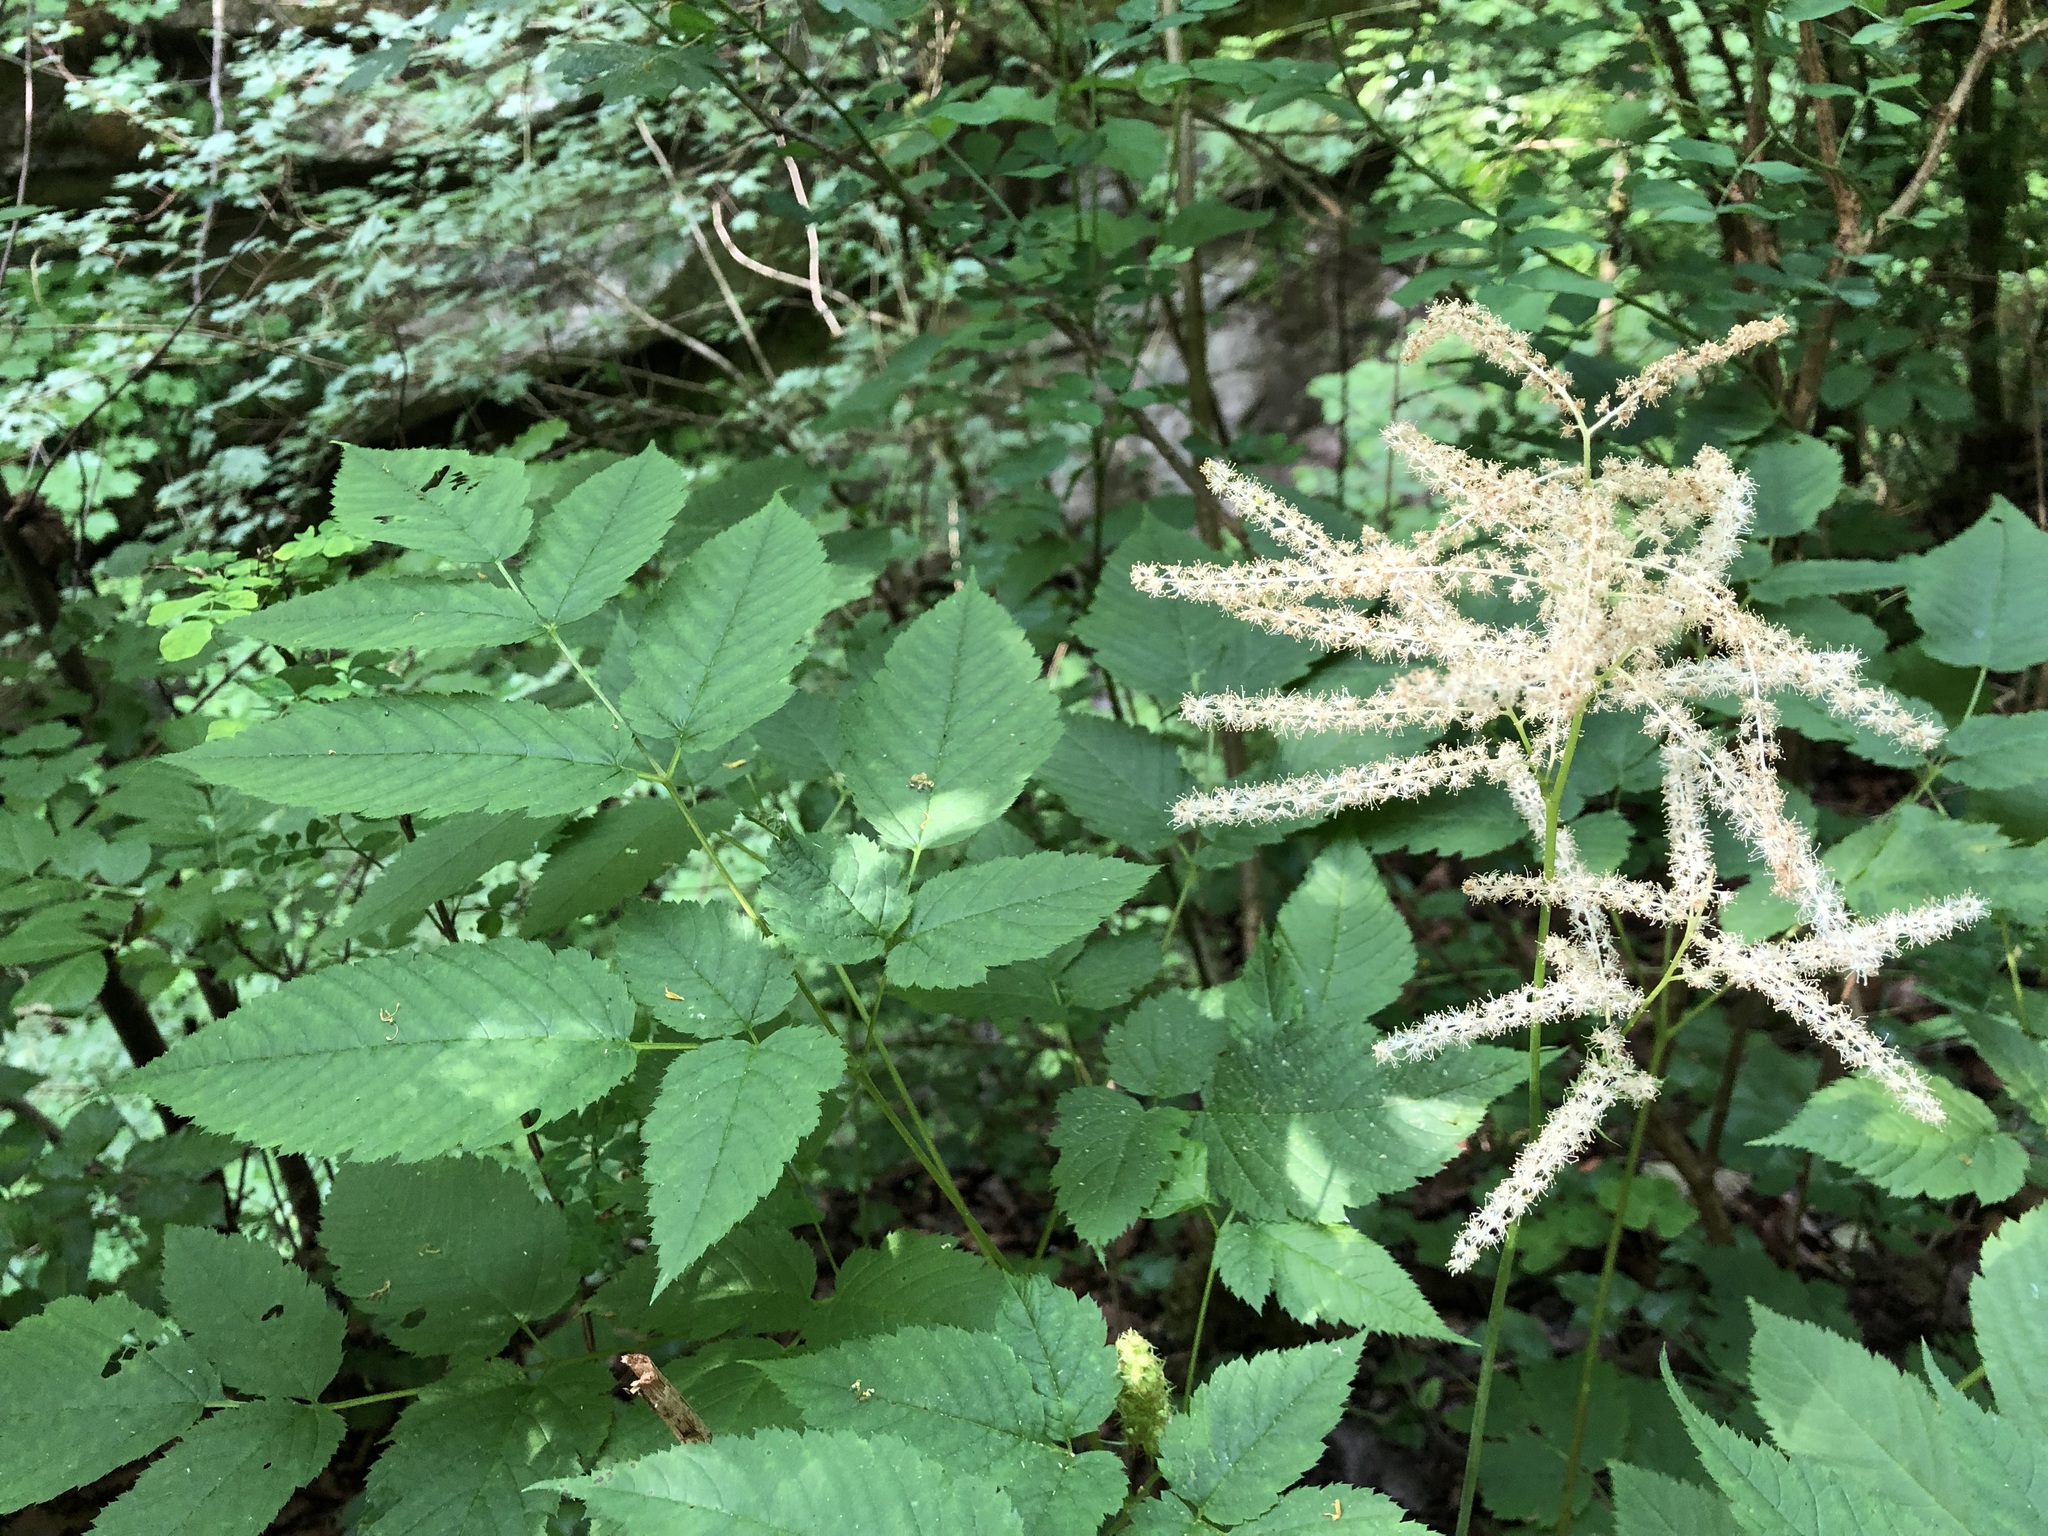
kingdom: Plantae
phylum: Tracheophyta
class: Magnoliopsida
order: Rosales
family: Rosaceae
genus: Aruncus
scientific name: Aruncus dioicus
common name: Buck's-beard
